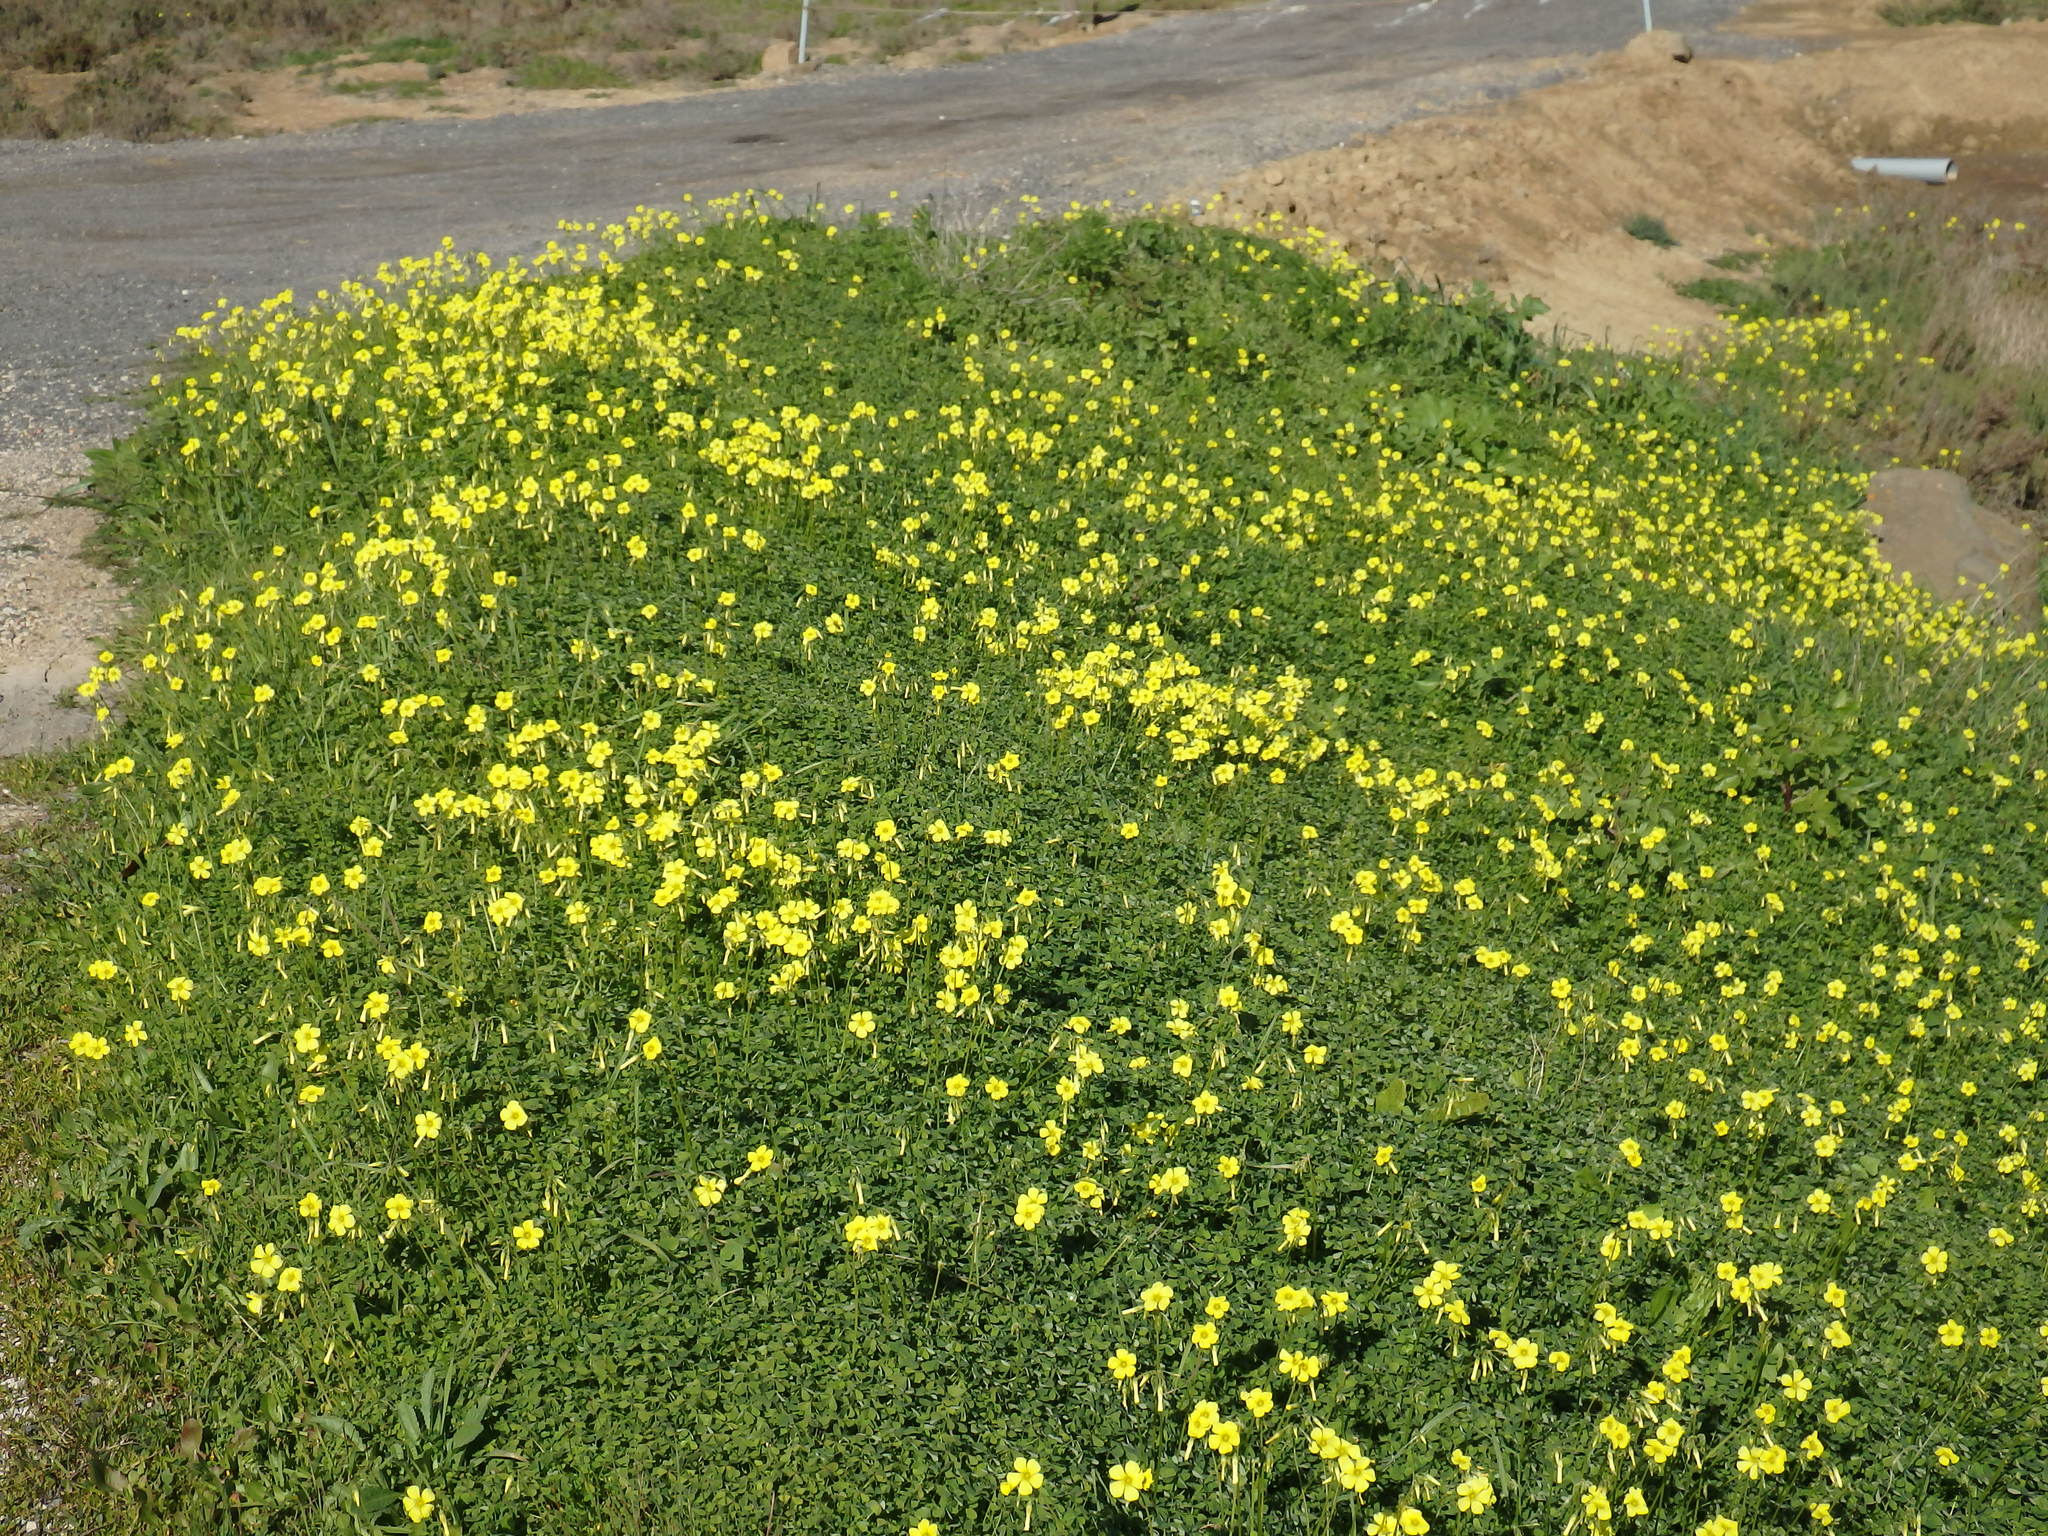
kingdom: Plantae
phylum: Tracheophyta
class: Magnoliopsida
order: Oxalidales
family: Oxalidaceae
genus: Oxalis
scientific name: Oxalis pes-caprae
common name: Bermuda-buttercup
